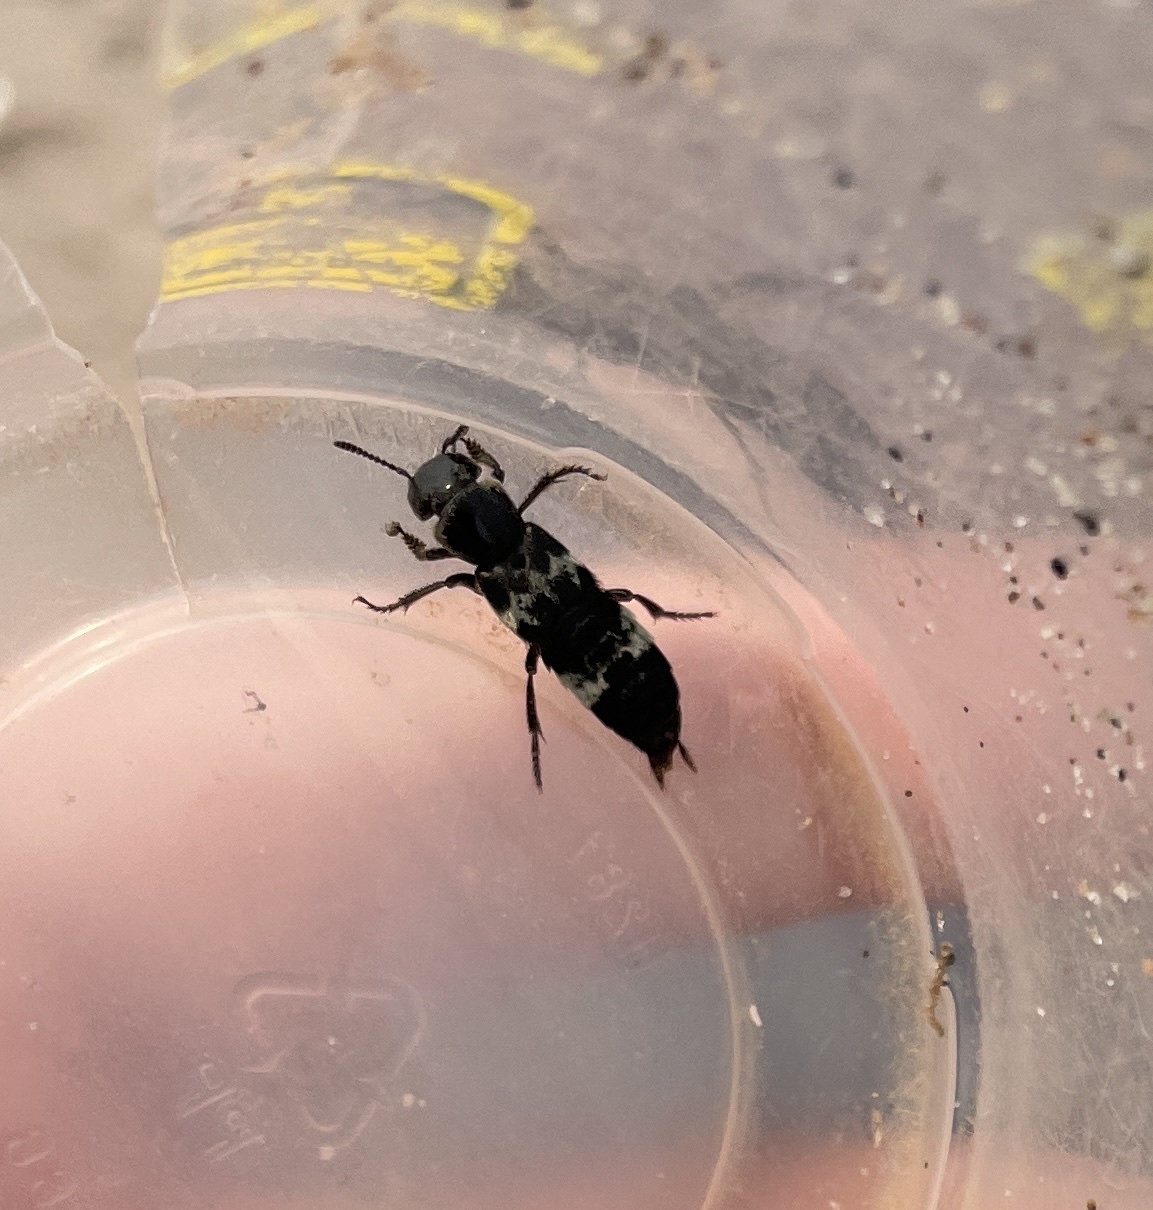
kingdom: Animalia
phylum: Arthropoda
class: Insecta
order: Coleoptera
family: Staphylinidae
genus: Creophilus
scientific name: Creophilus maxillosus
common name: Hairy rove beetle
